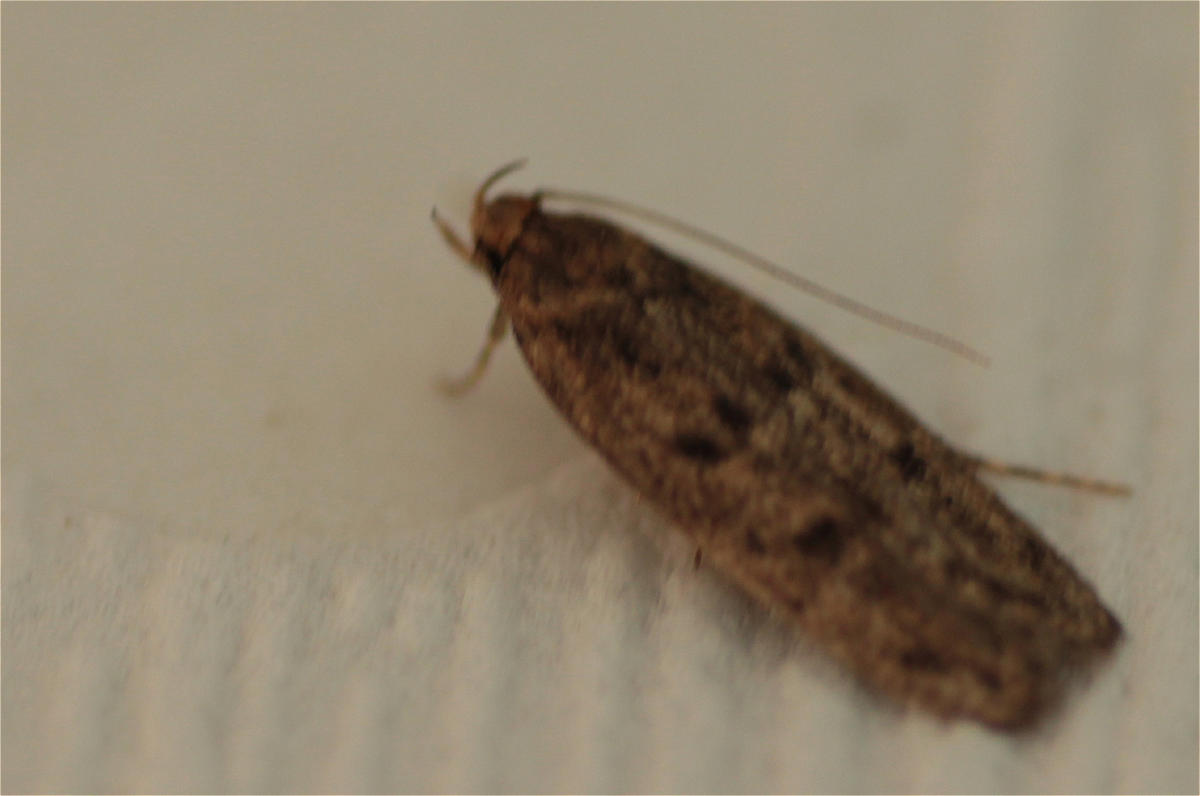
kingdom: Animalia
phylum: Arthropoda
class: Insecta
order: Lepidoptera
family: Oecophoridae
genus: Hofmannophila
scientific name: Hofmannophila pseudospretella
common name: Brown house moth
